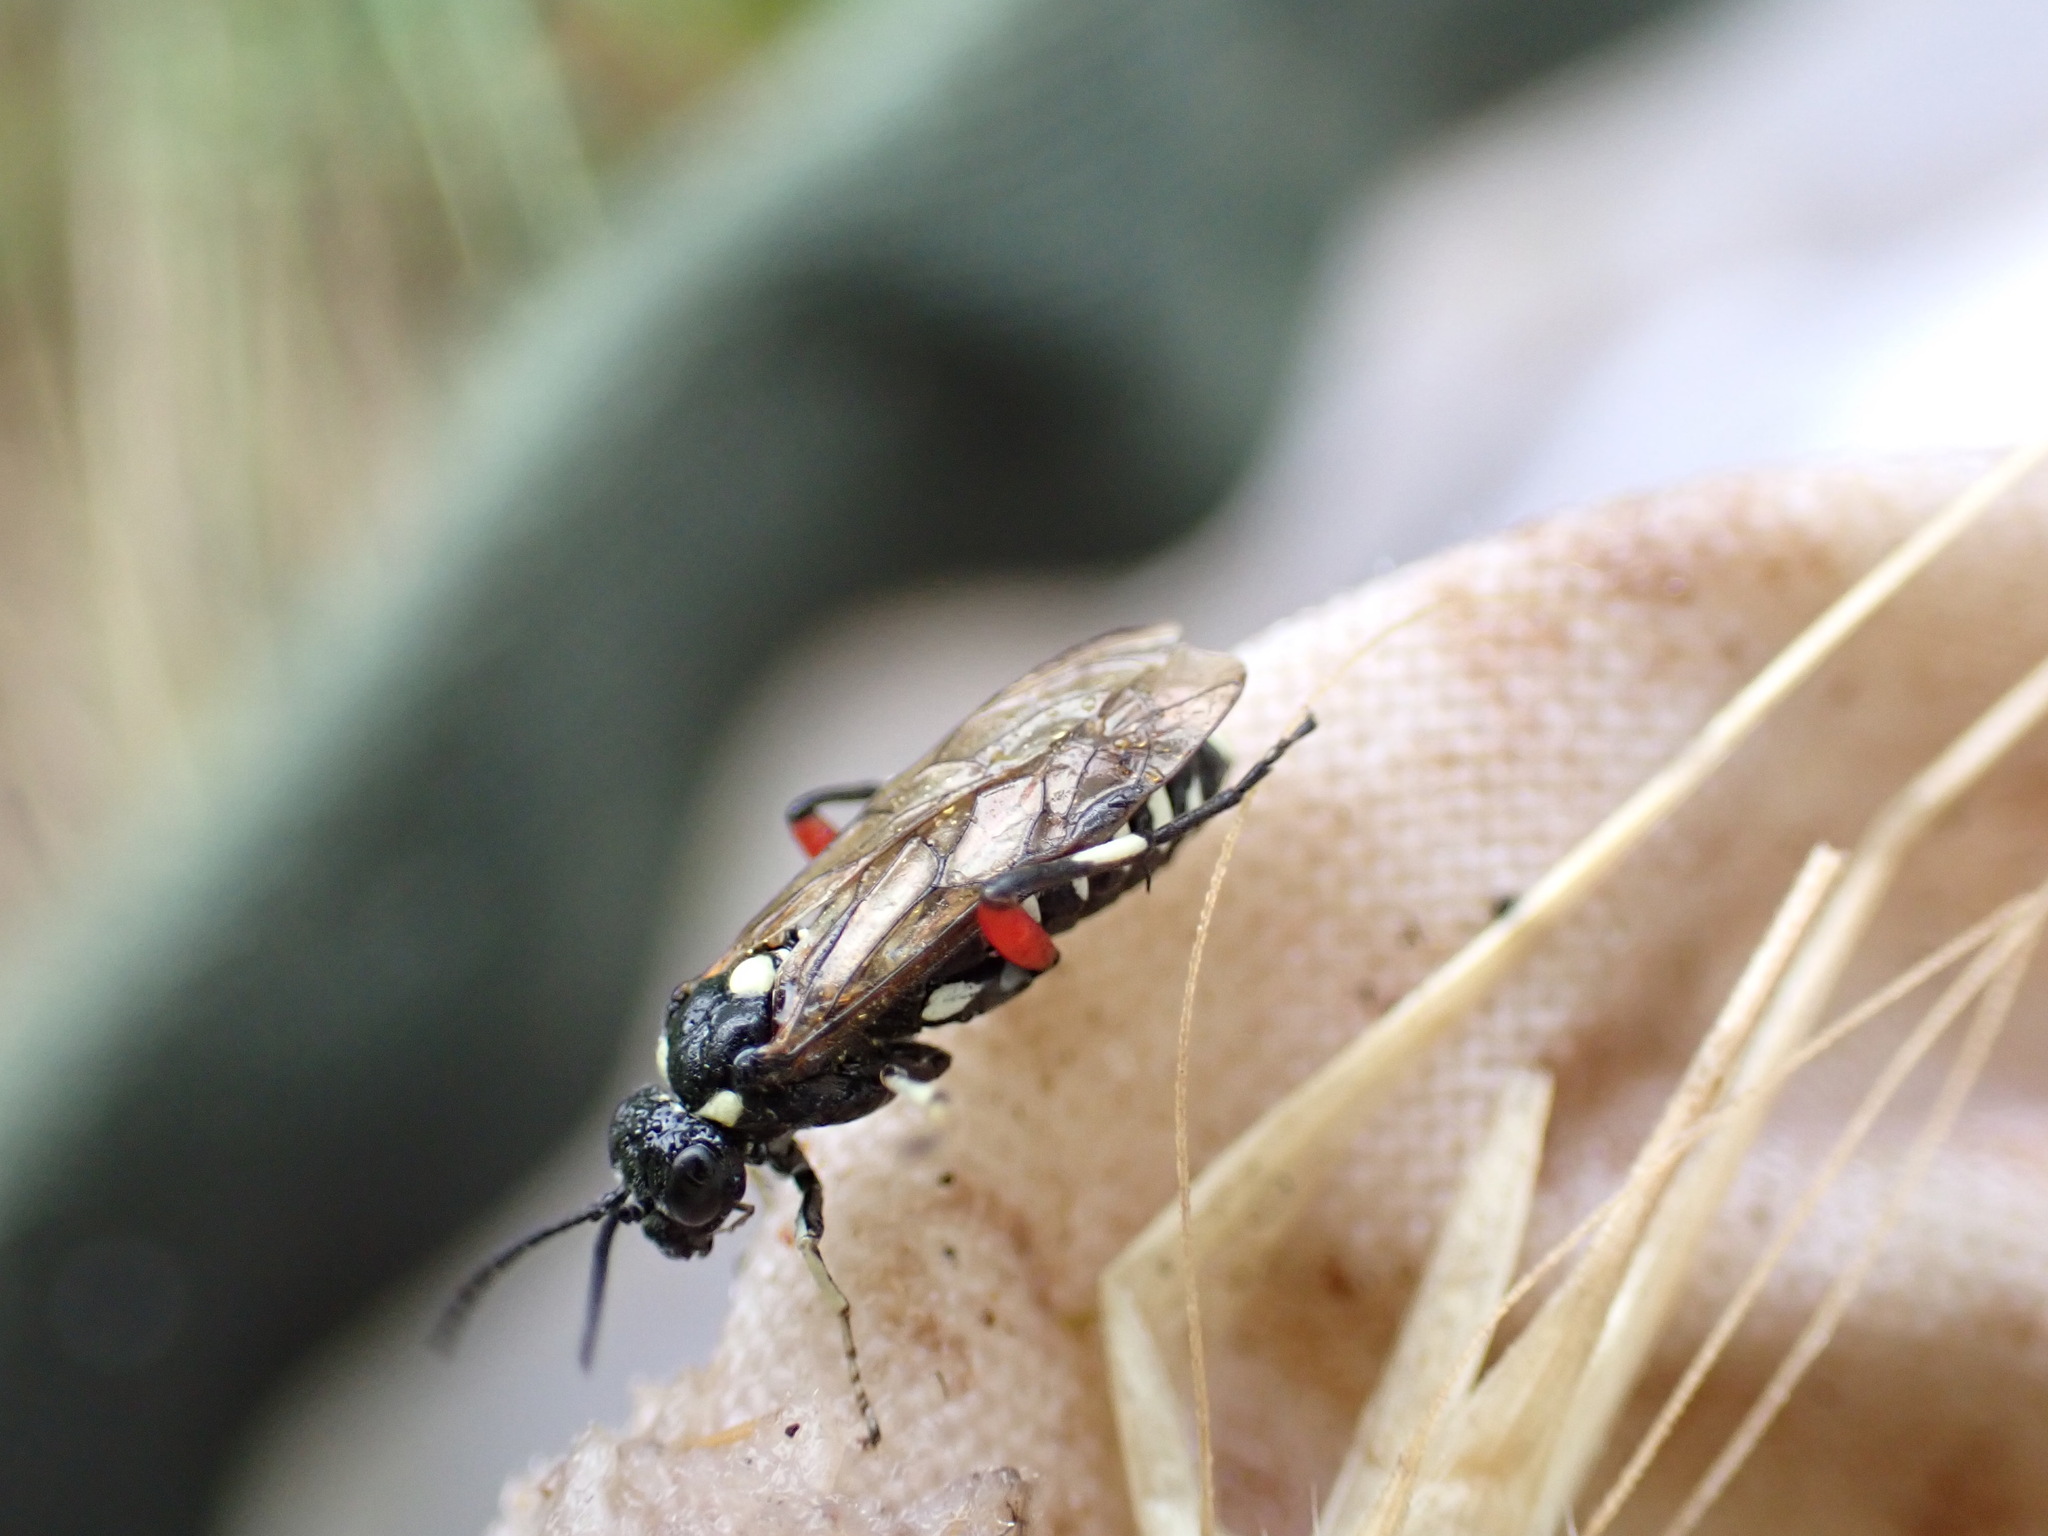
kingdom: Animalia
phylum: Arthropoda
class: Insecta
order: Hymenoptera
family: Tenthredinidae
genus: Macrophya
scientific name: Macrophya punctumalbum
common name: Sawfly
